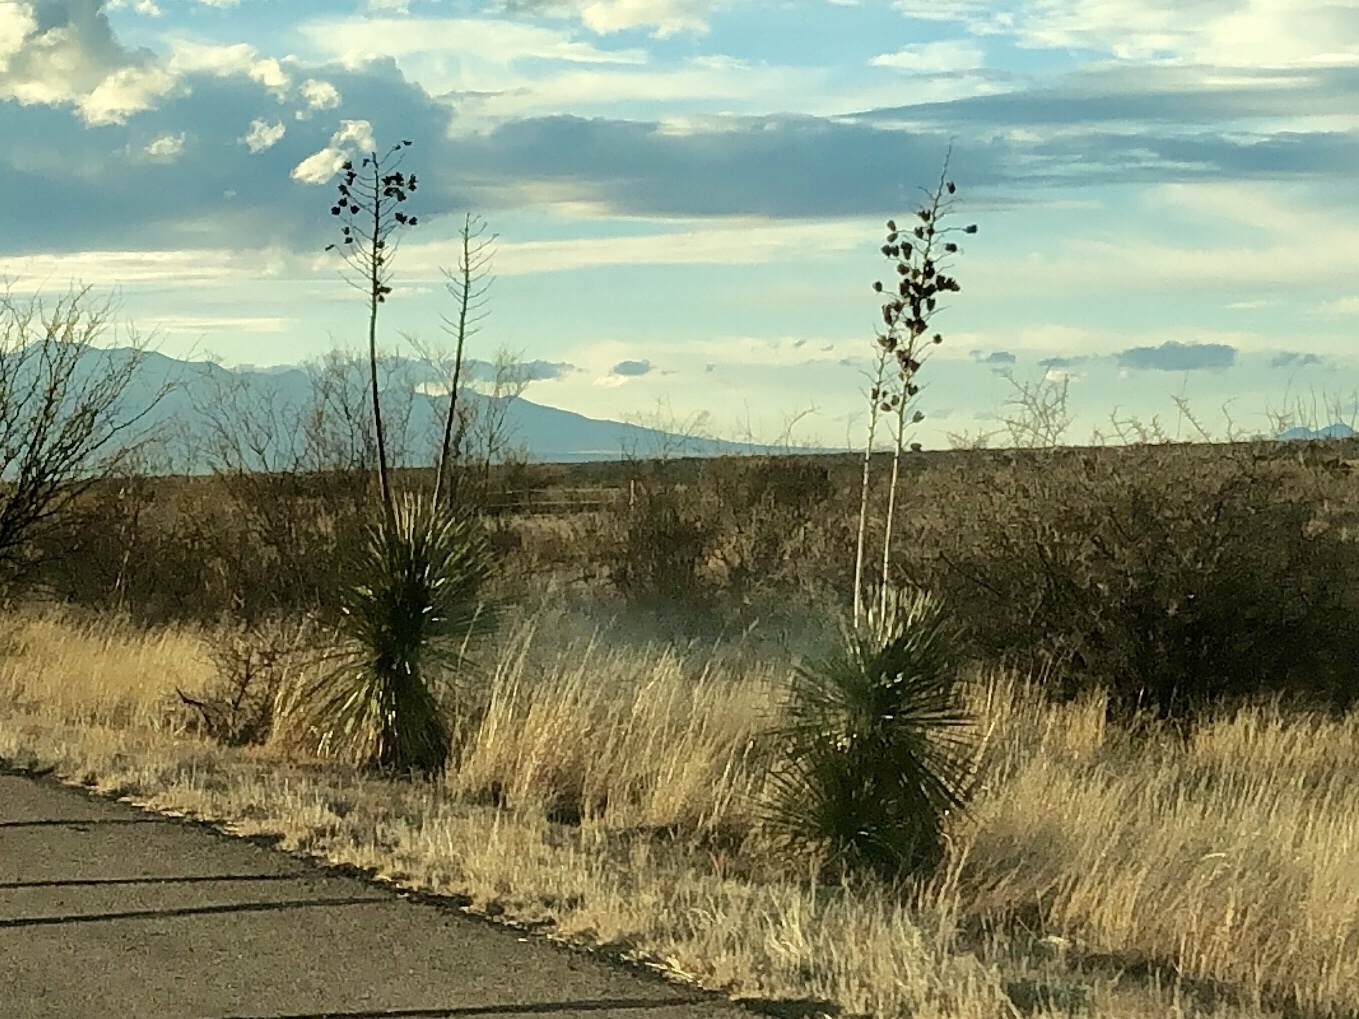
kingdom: Plantae
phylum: Tracheophyta
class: Liliopsida
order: Asparagales
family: Asparagaceae
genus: Yucca
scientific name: Yucca elata
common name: Palmella
